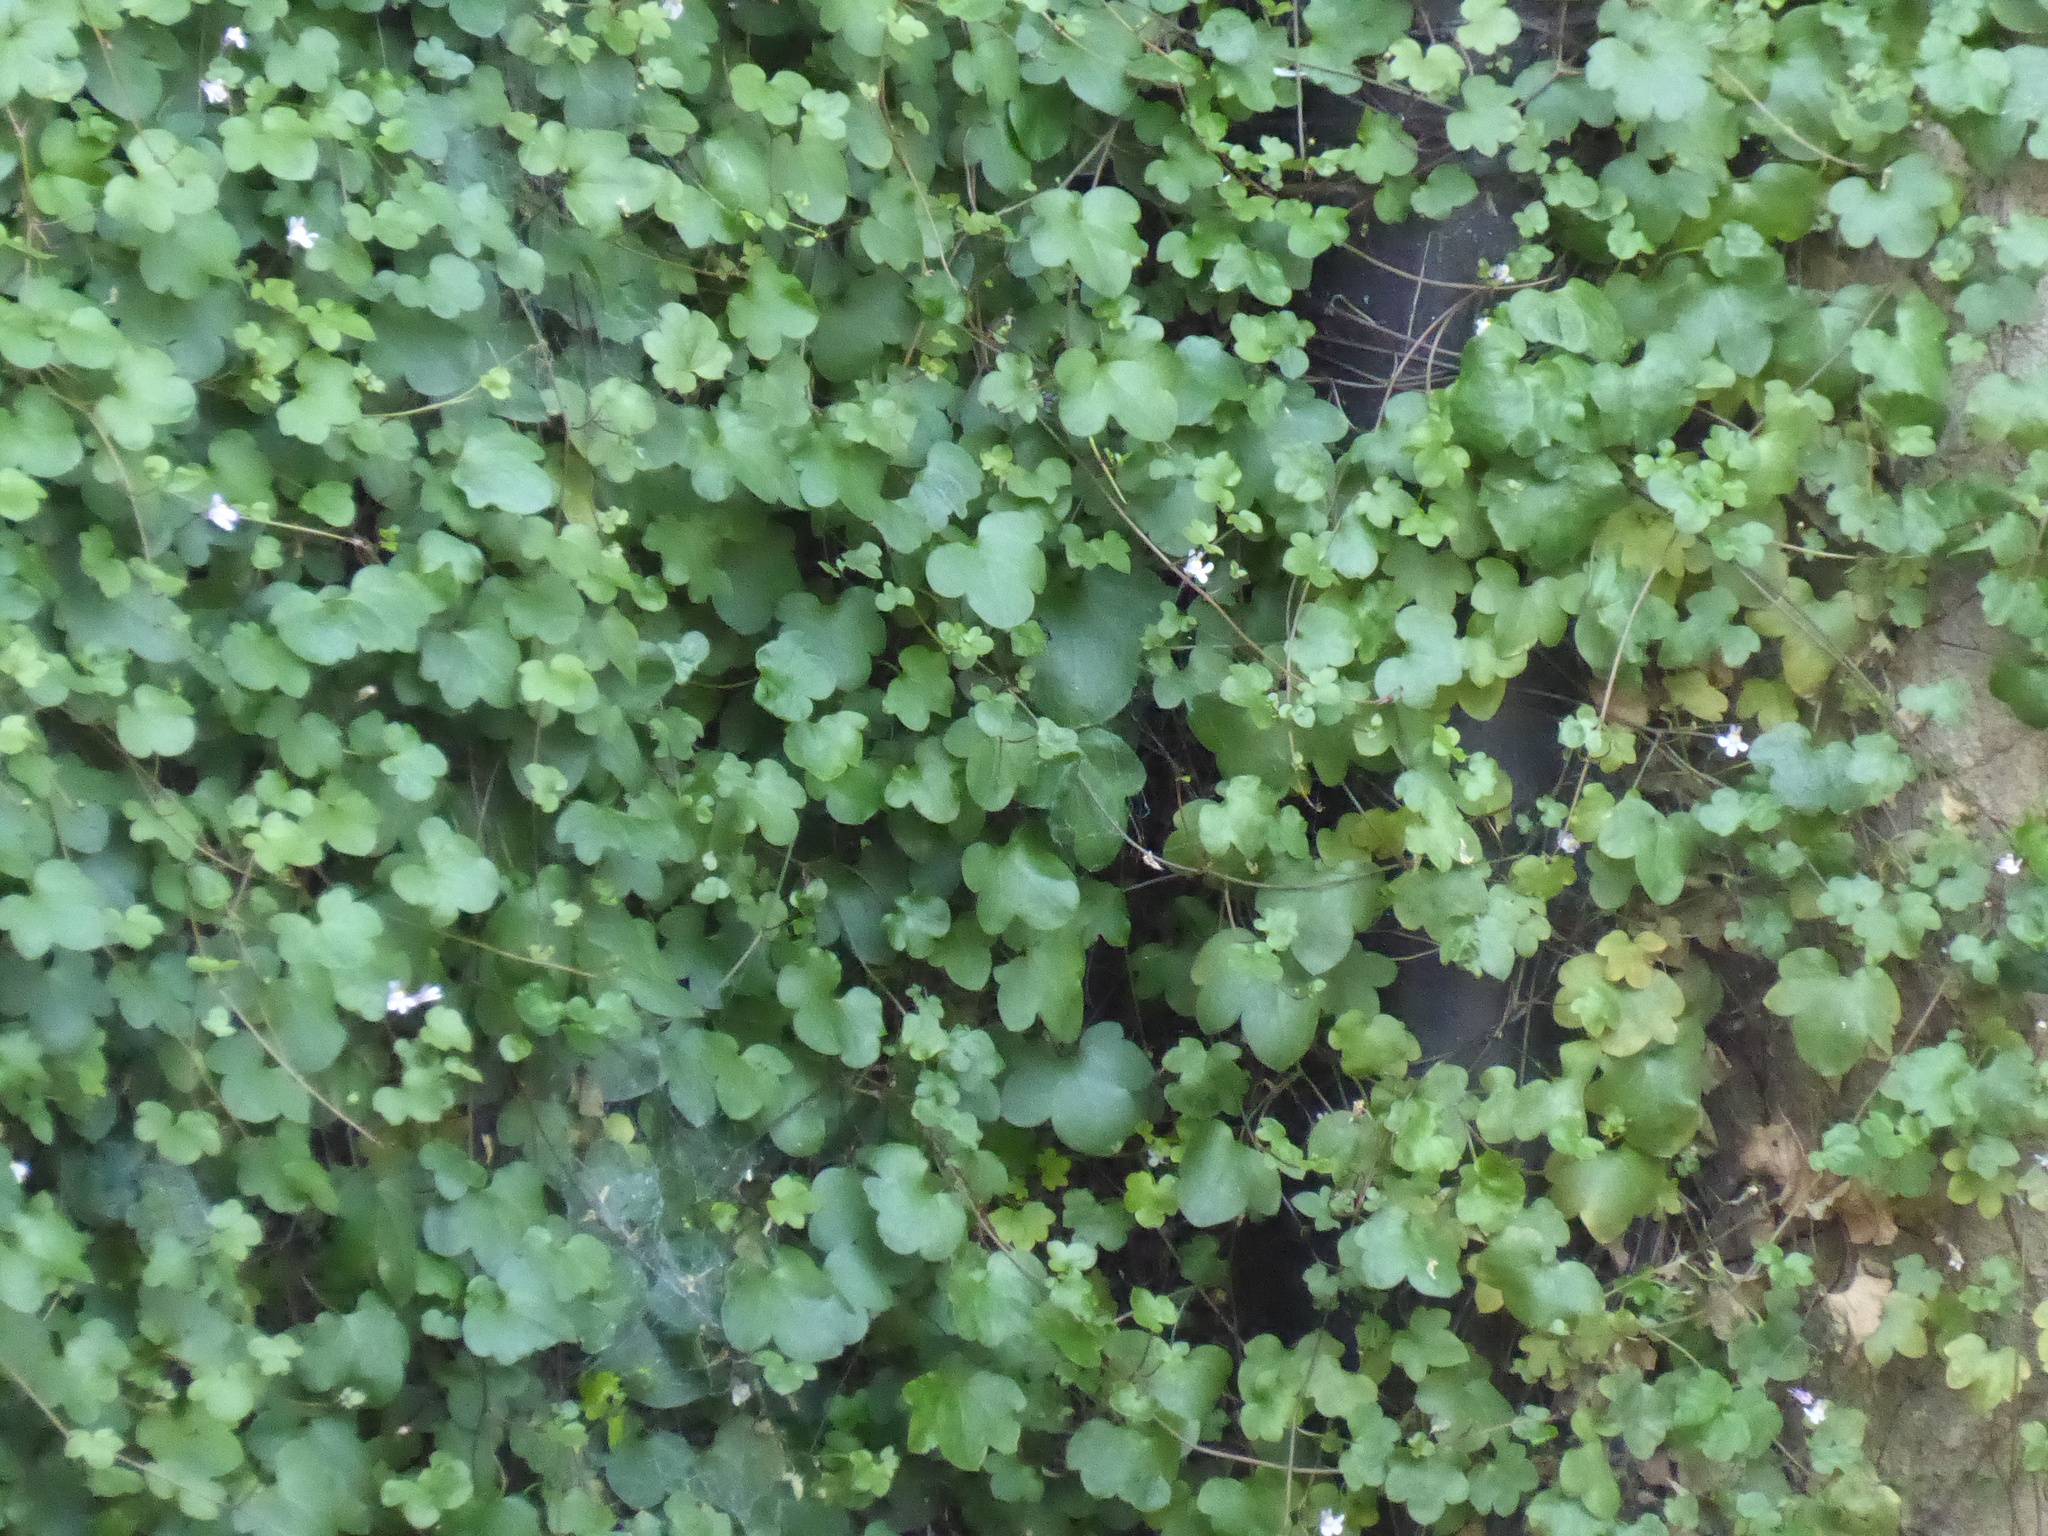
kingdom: Plantae
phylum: Tracheophyta
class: Magnoliopsida
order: Lamiales
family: Plantaginaceae
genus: Cymbalaria
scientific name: Cymbalaria muralis
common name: Ivy-leaved toadflax
